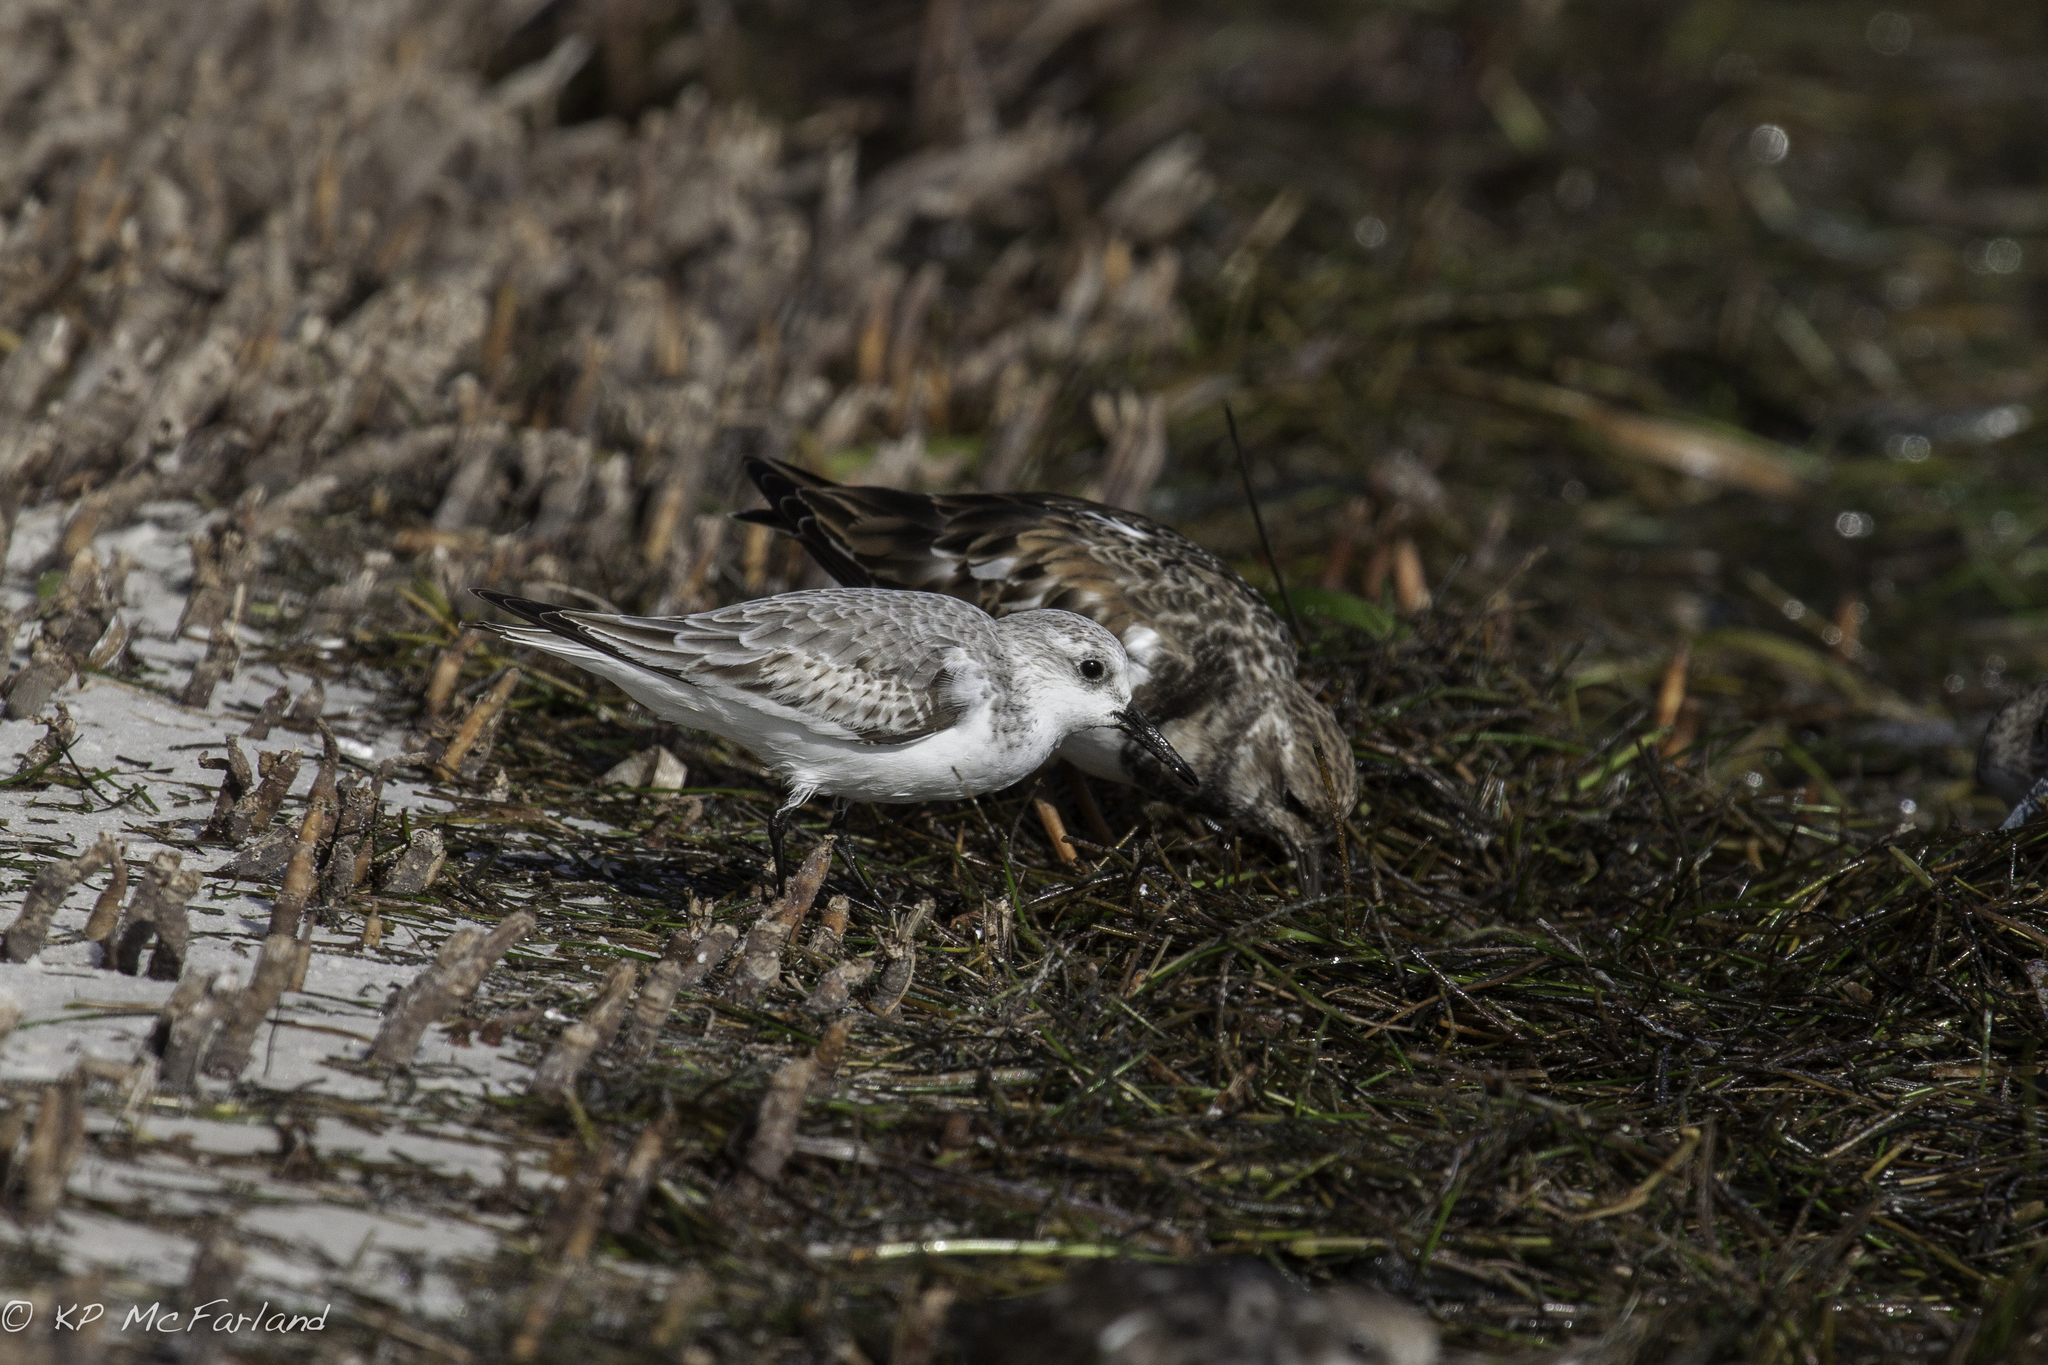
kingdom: Animalia
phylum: Chordata
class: Aves
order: Charadriiformes
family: Scolopacidae
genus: Calidris
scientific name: Calidris alba
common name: Sanderling
